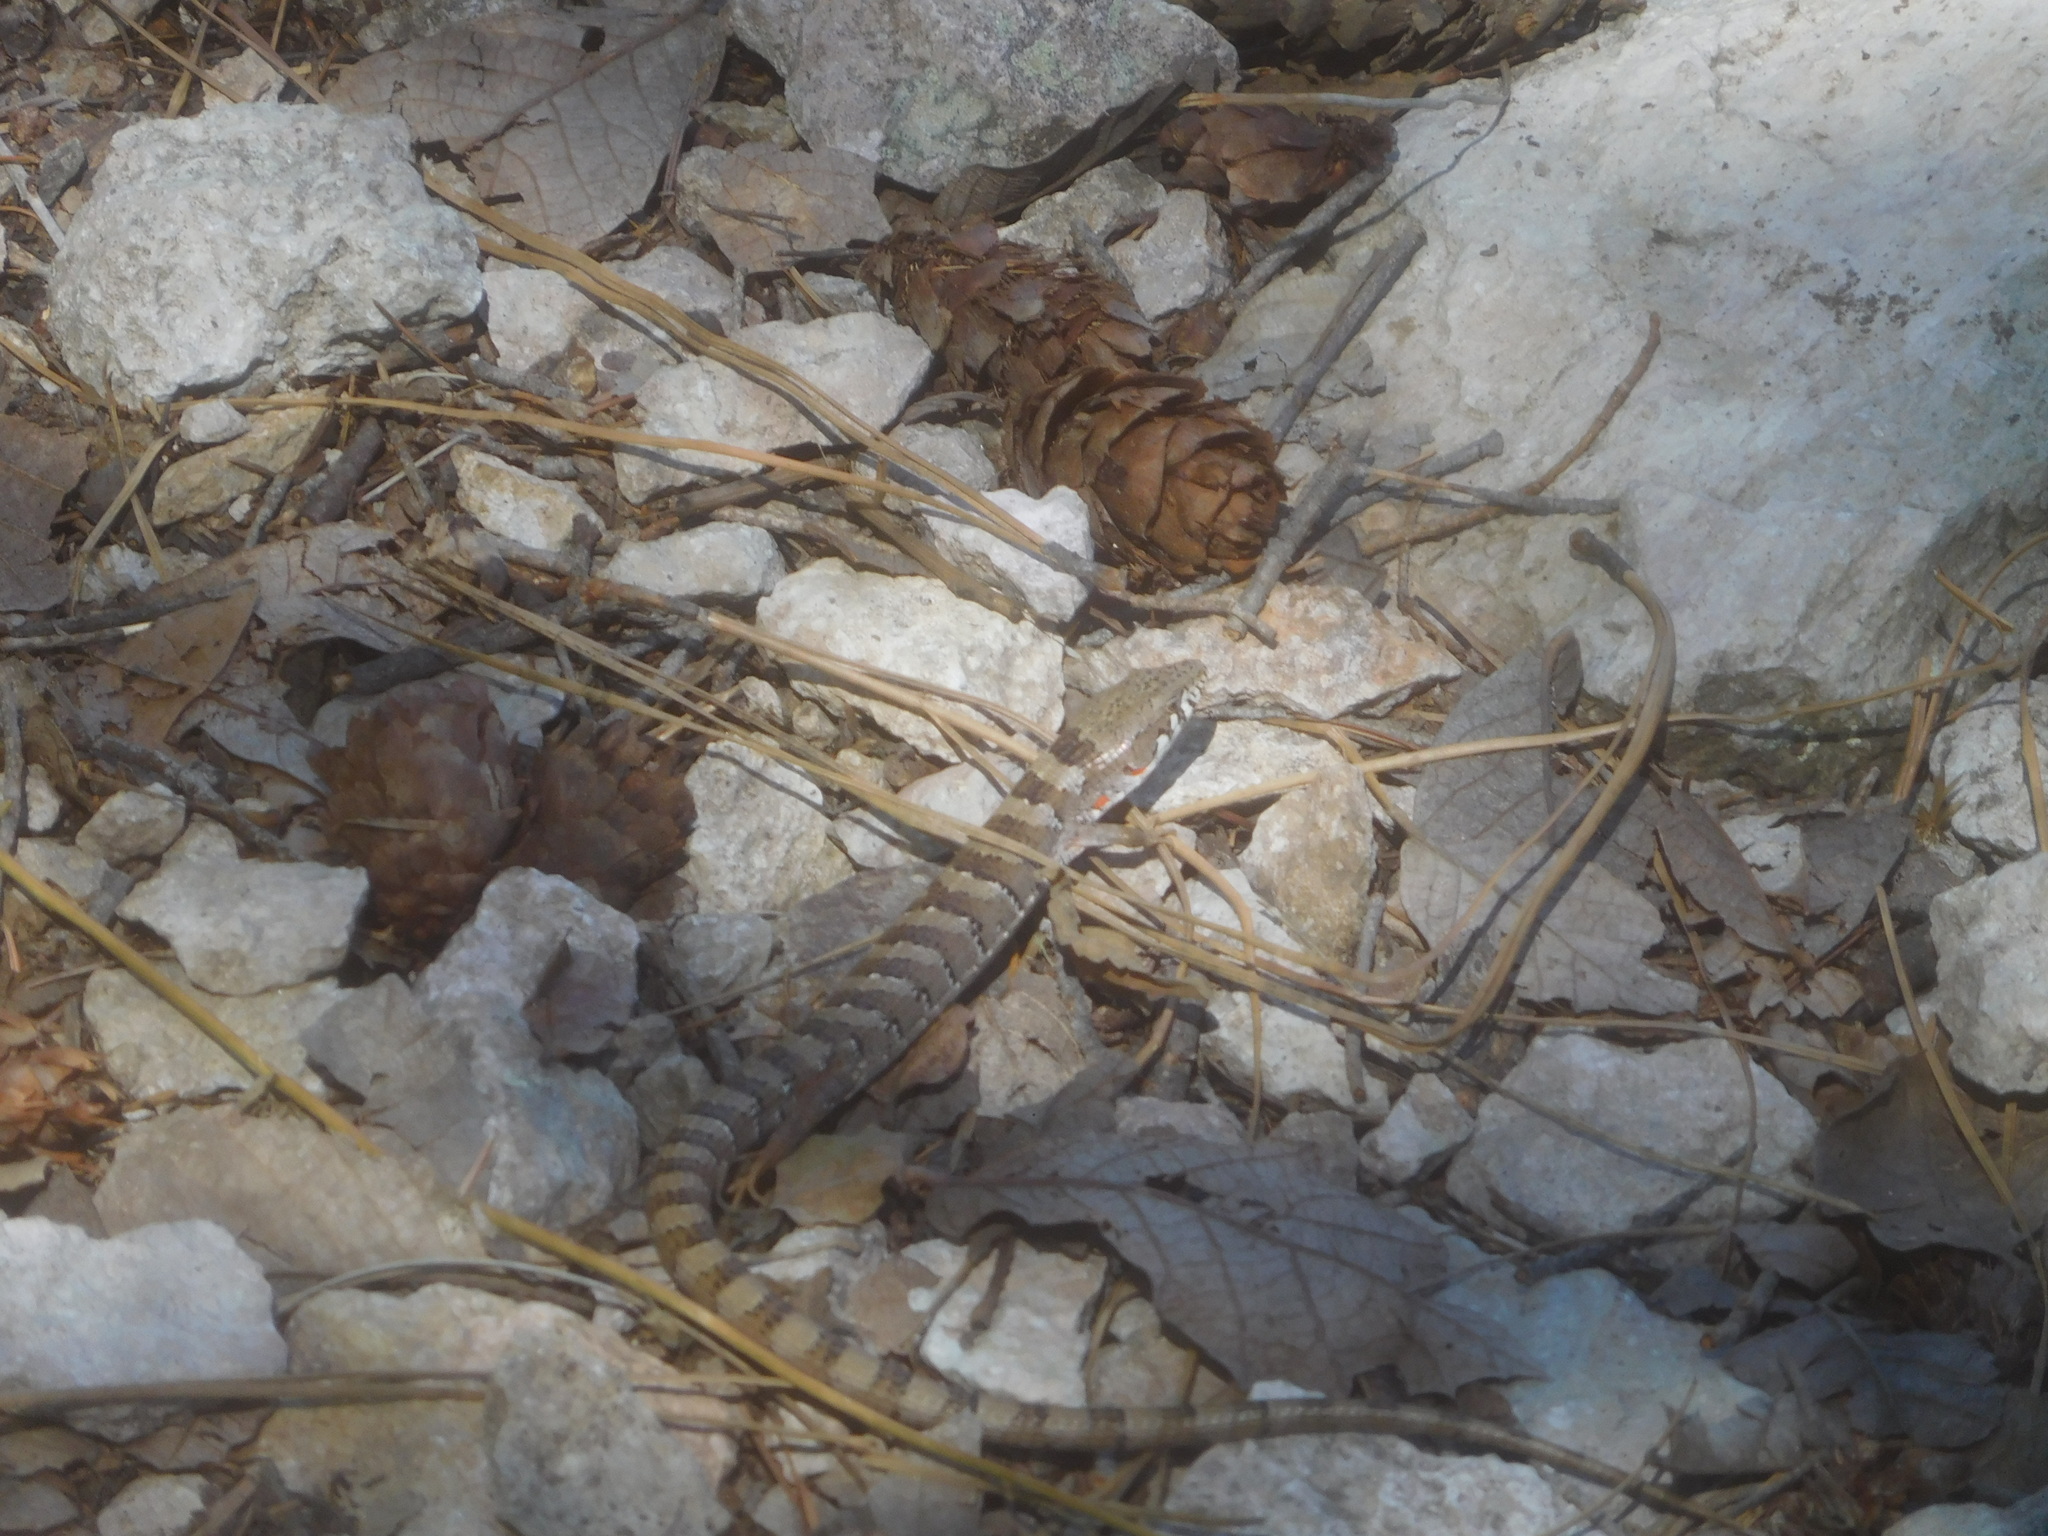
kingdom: Animalia
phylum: Chordata
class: Squamata
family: Anguidae
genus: Elgaria
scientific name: Elgaria kingii
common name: Madrean alligator lizard
